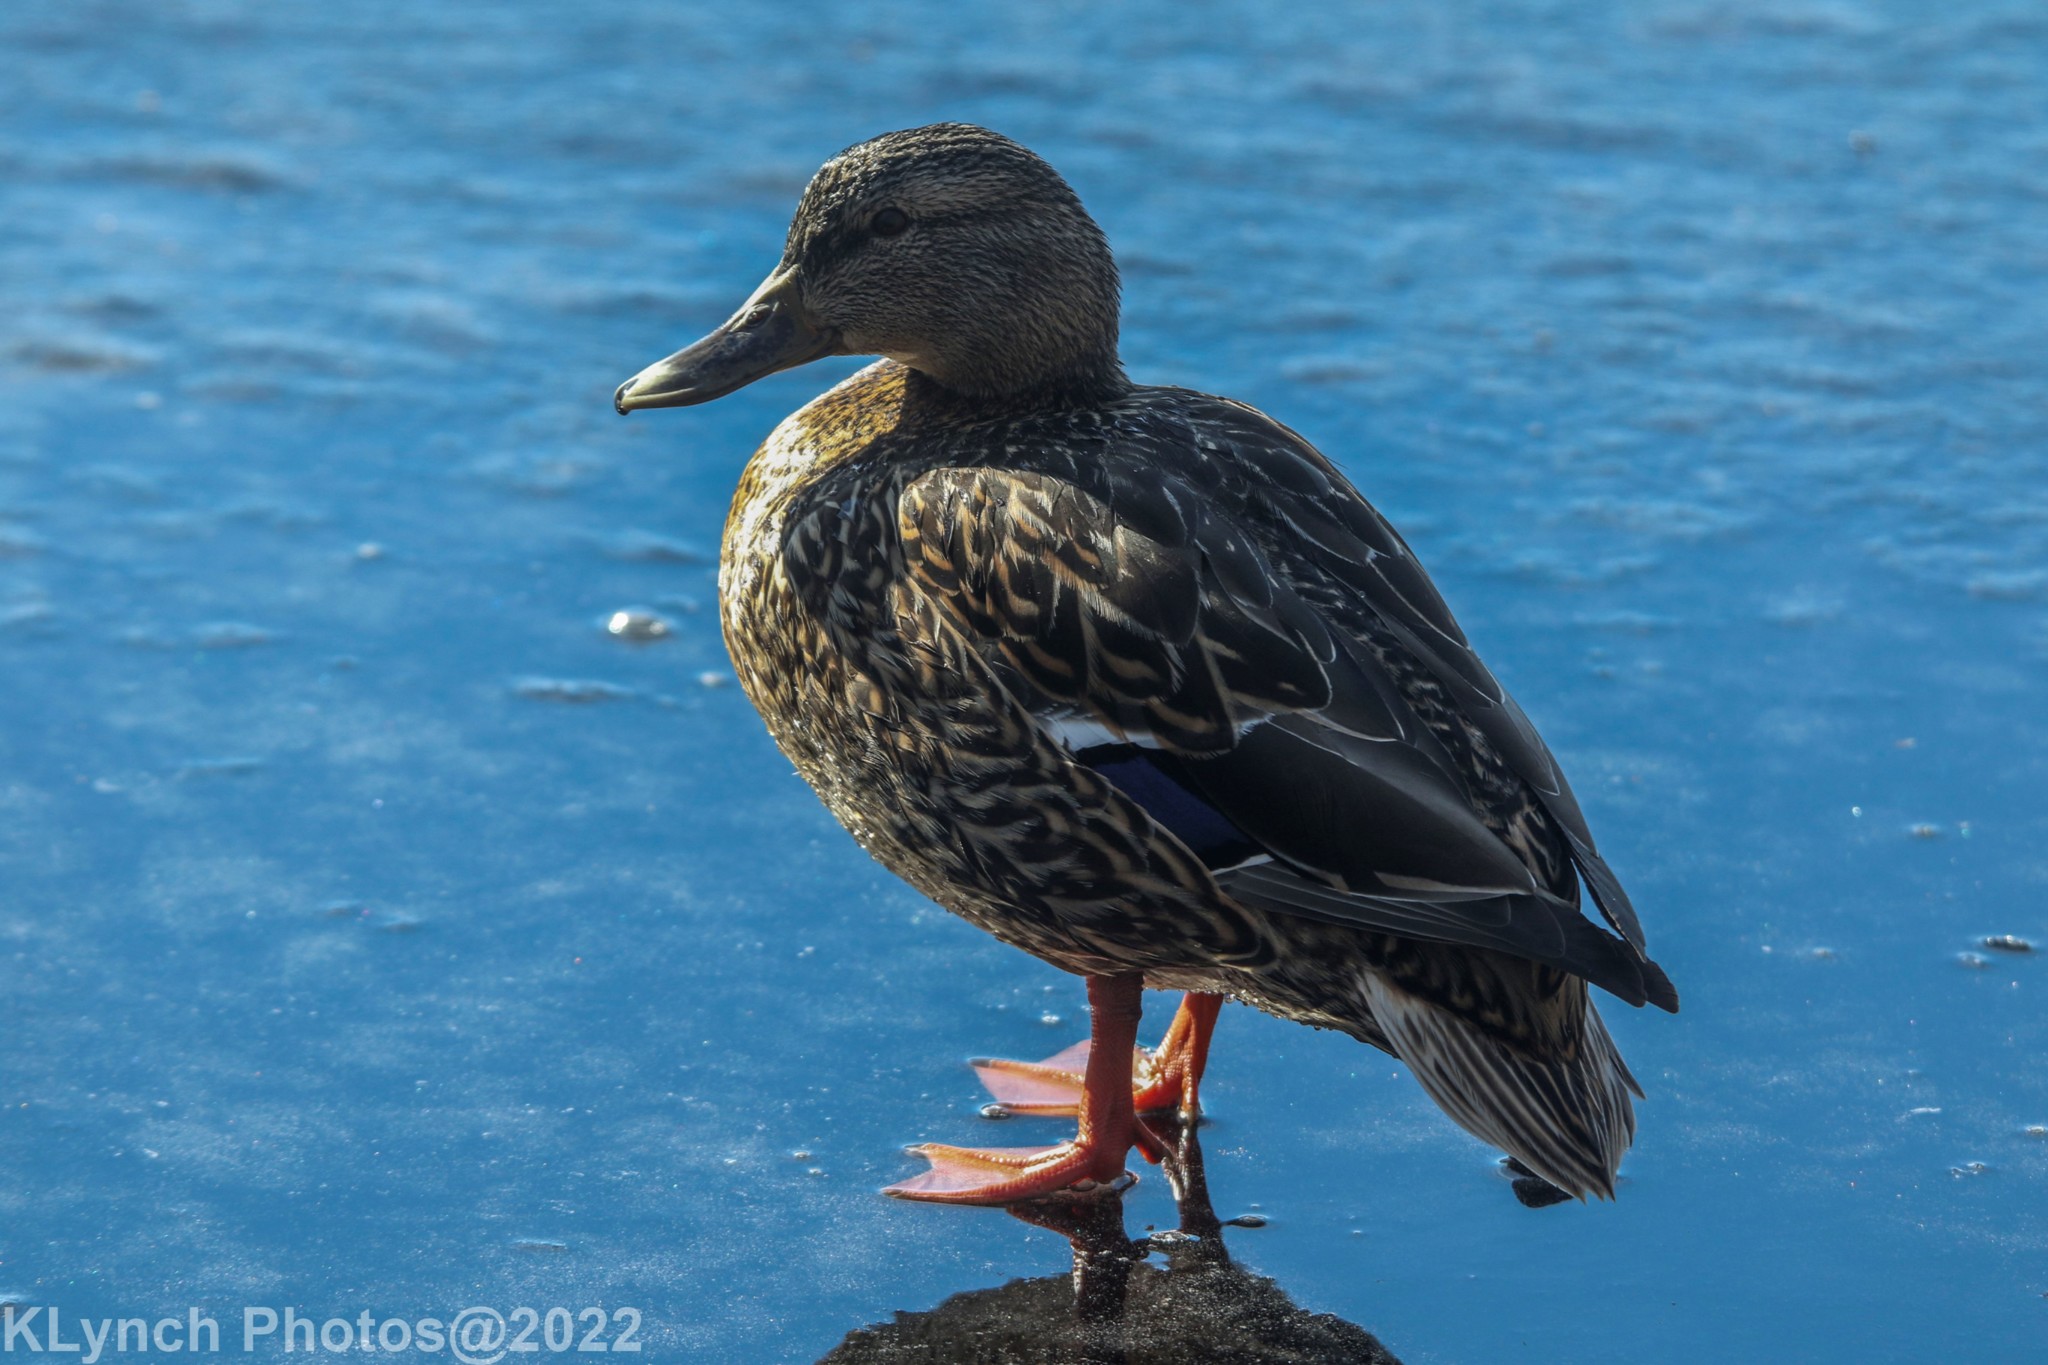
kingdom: Animalia
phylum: Chordata
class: Aves
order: Anseriformes
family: Anatidae
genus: Anas
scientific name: Anas platyrhynchos
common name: Mallard
